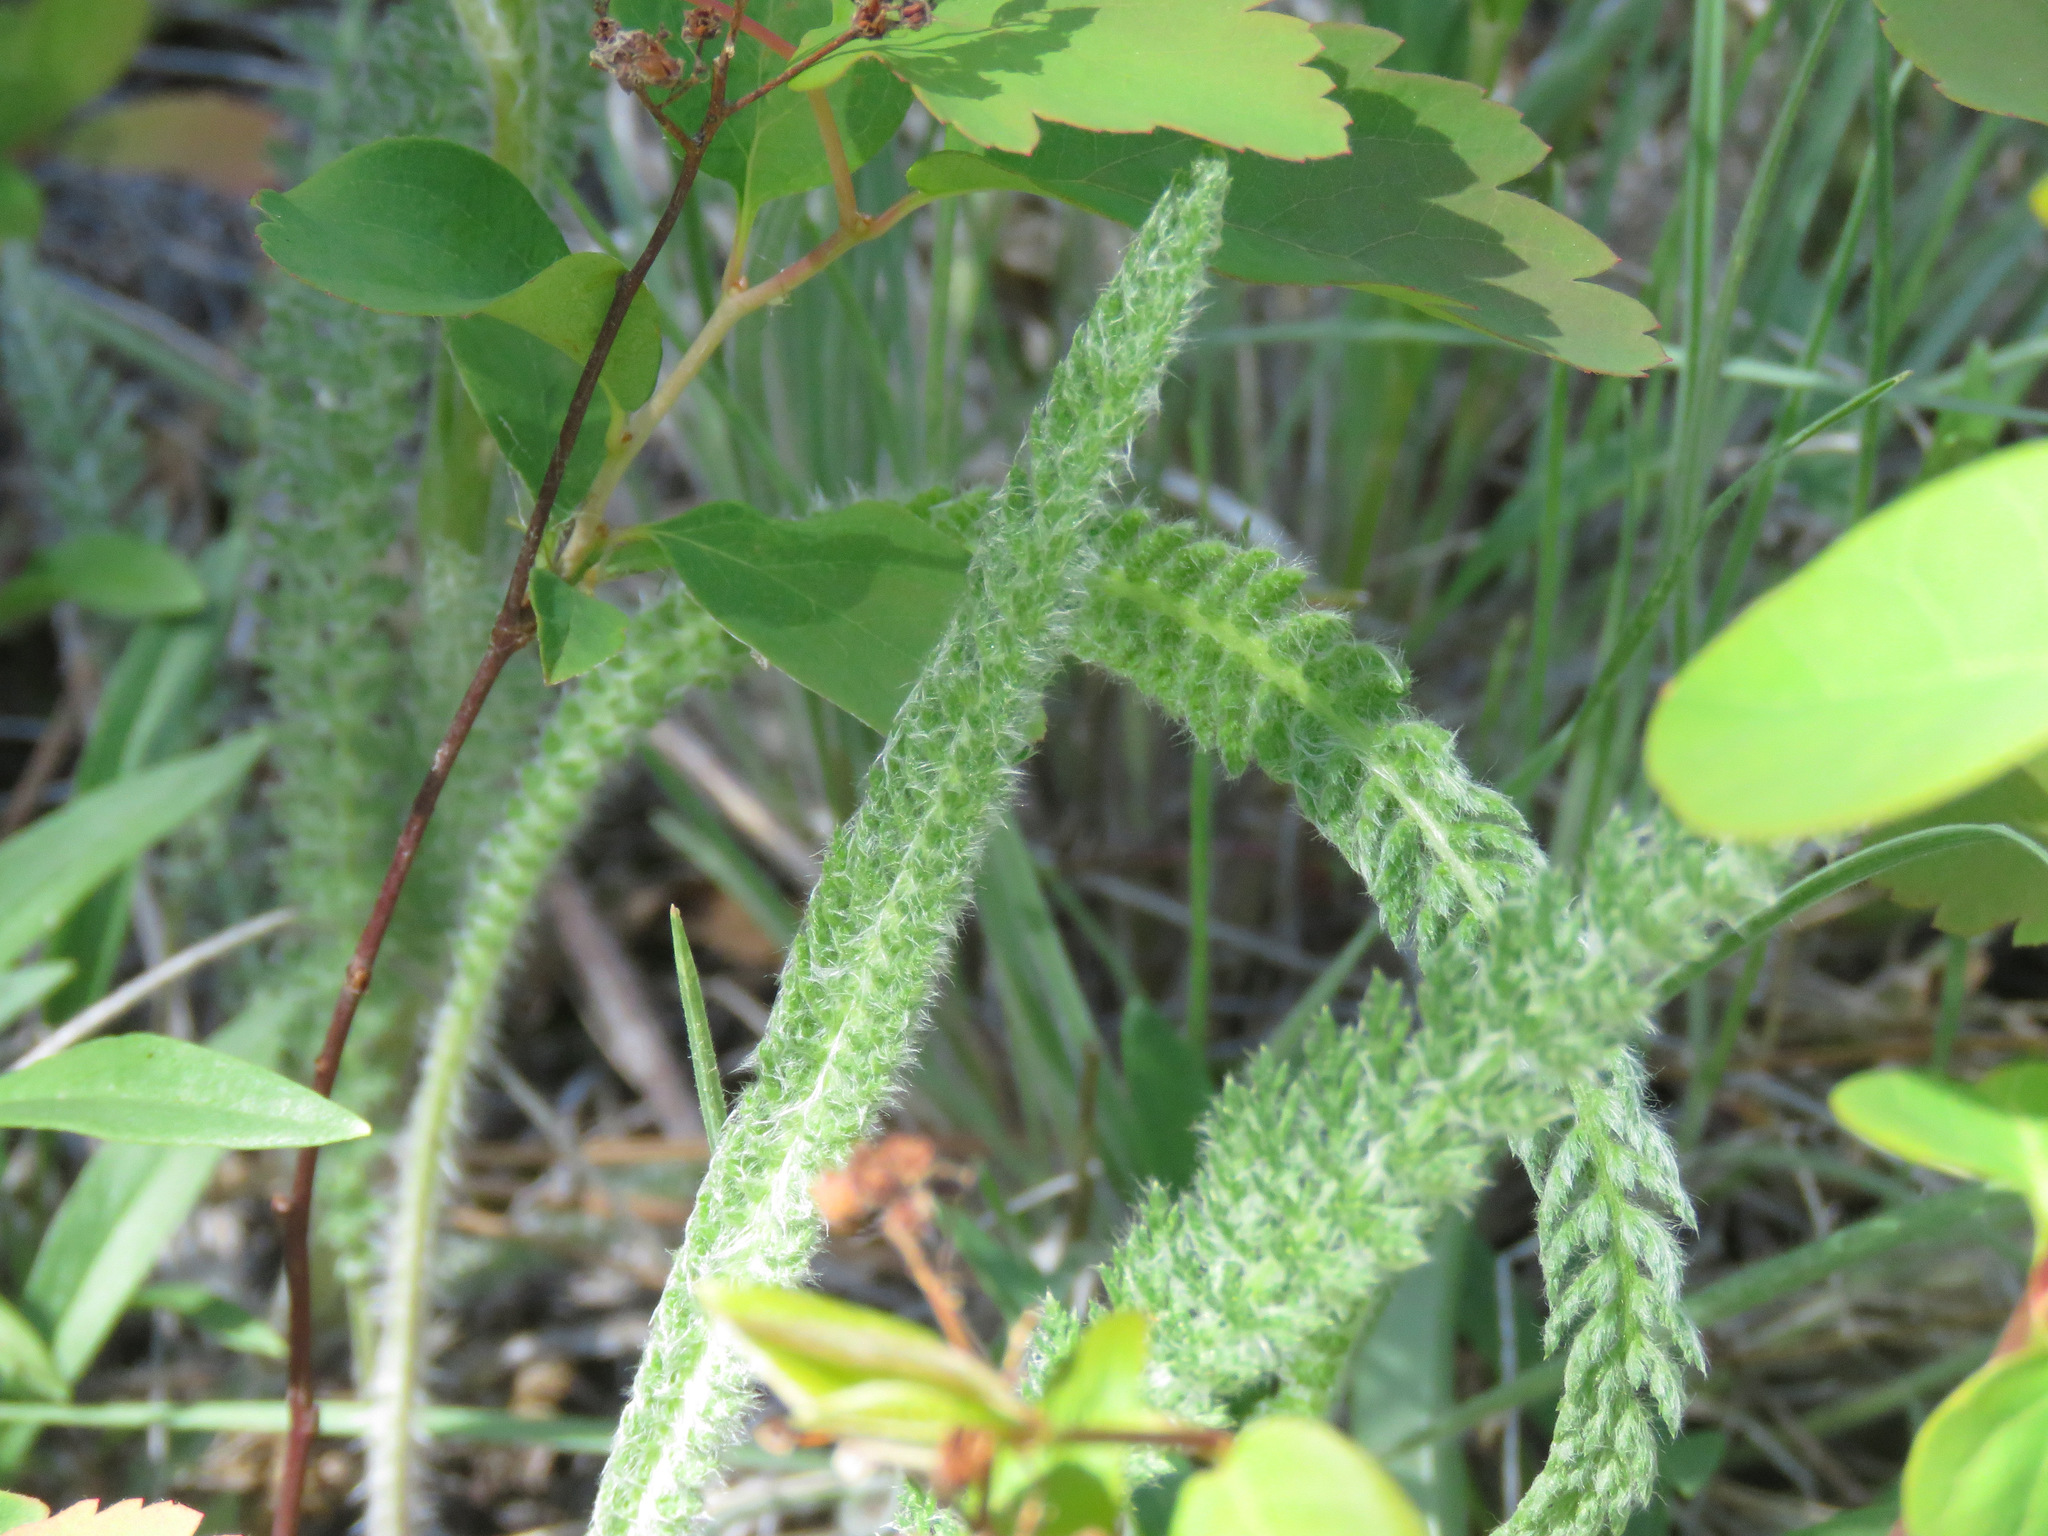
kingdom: Plantae
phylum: Tracheophyta
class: Magnoliopsida
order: Asterales
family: Asteraceae
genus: Achillea
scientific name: Achillea millefolium
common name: Yarrow
